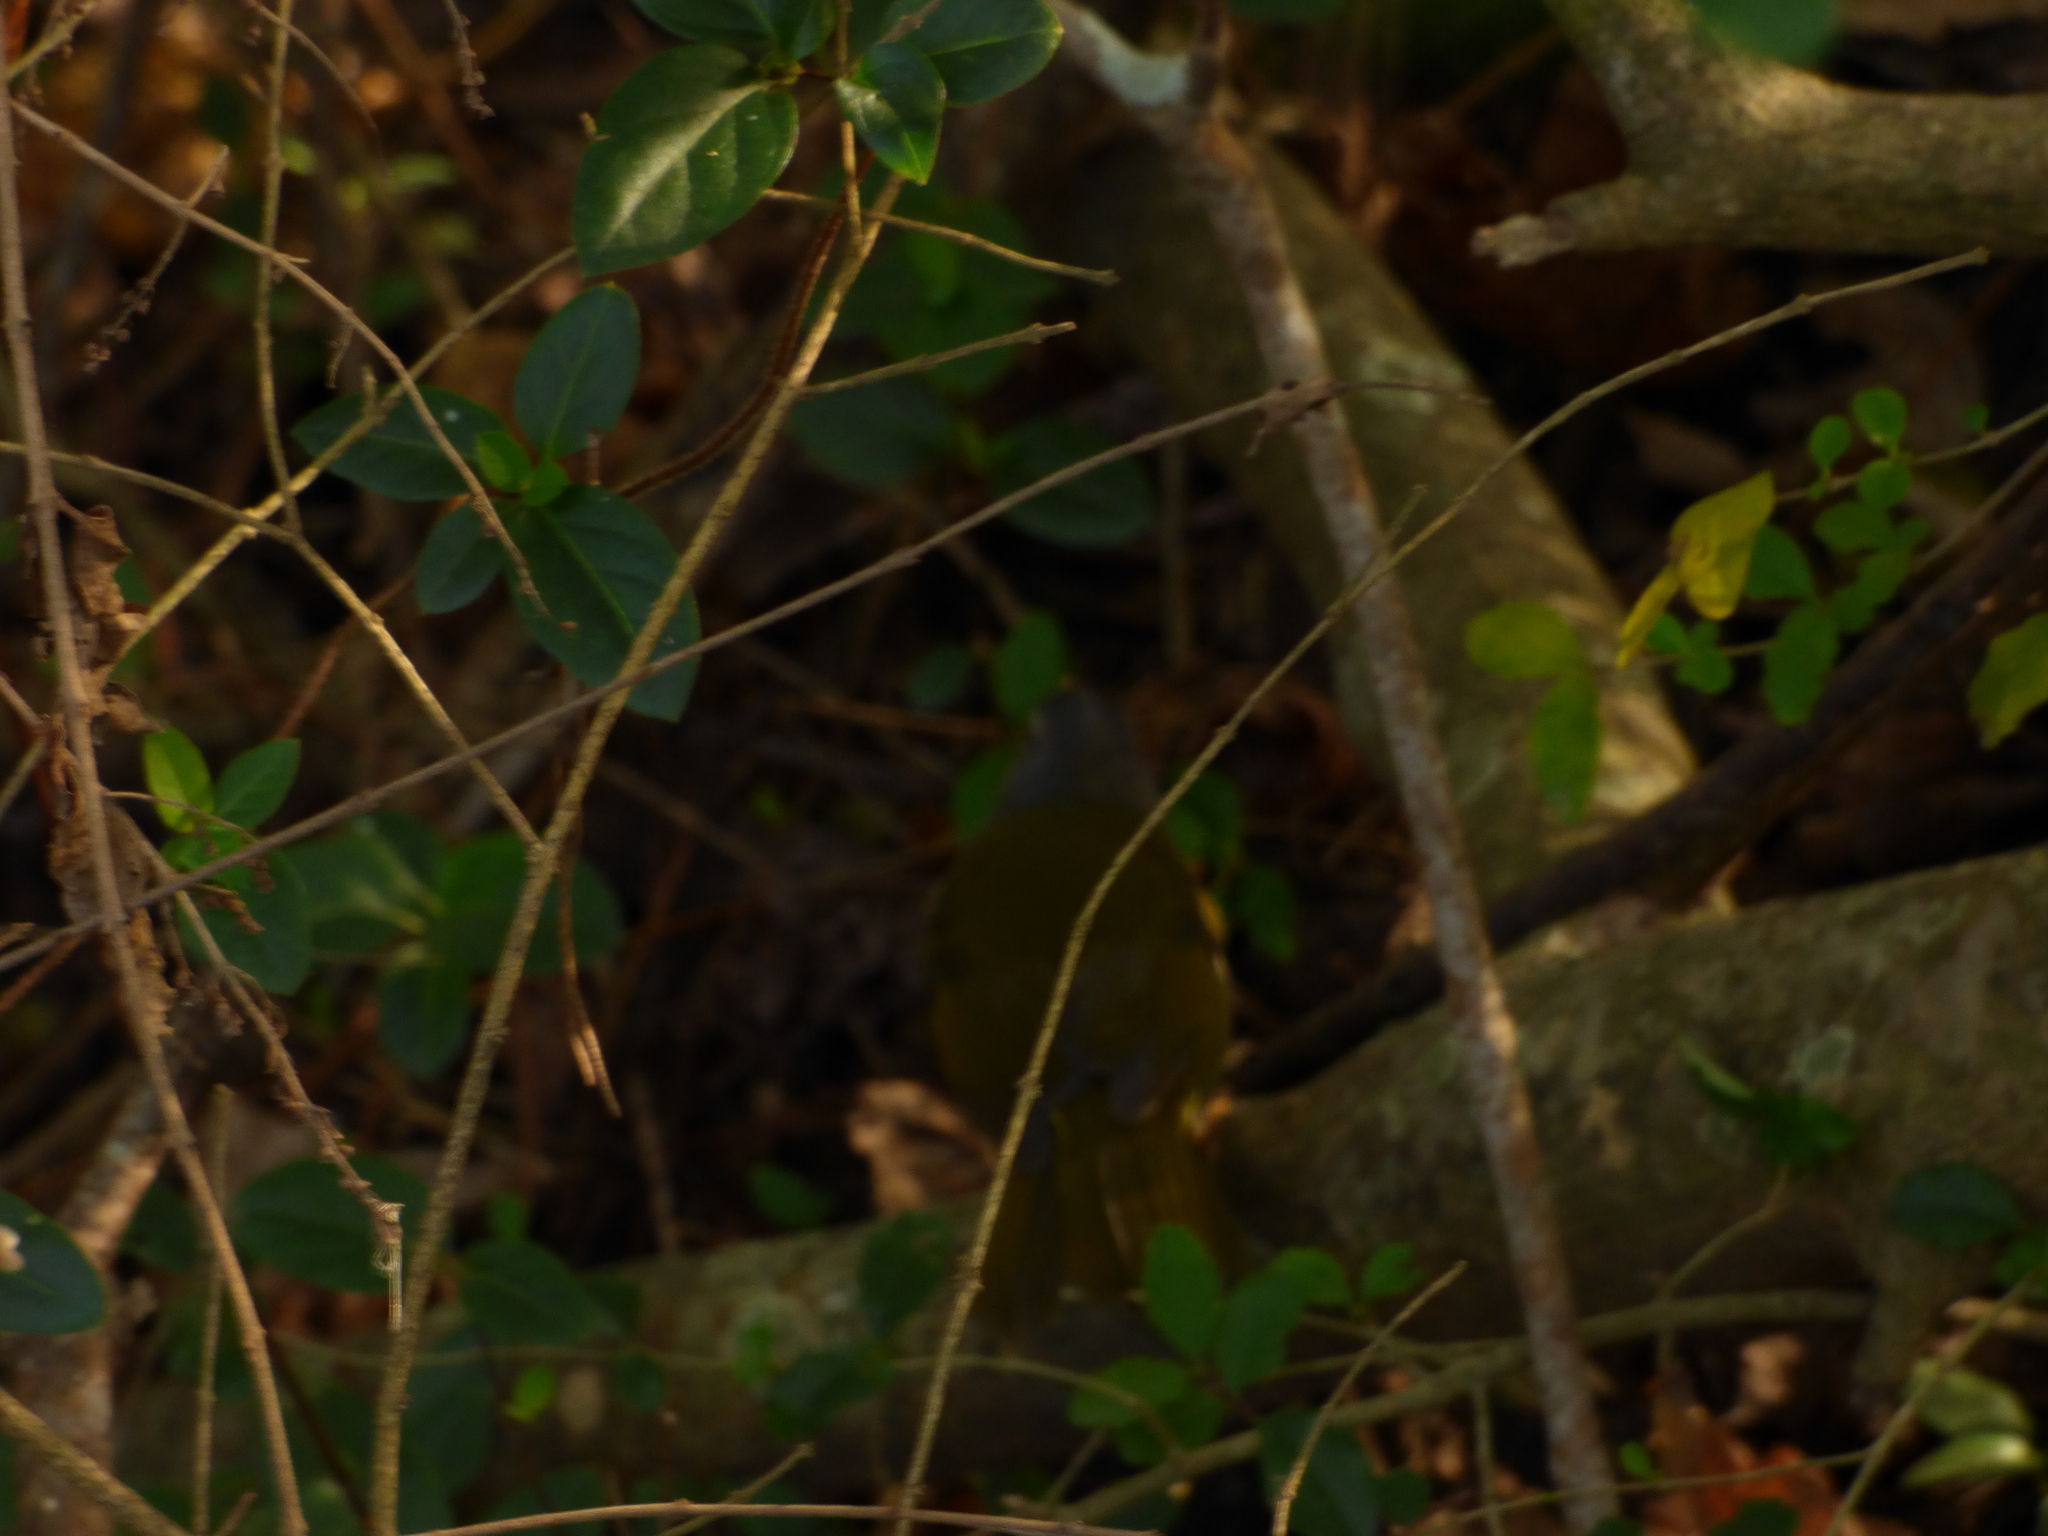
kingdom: Animalia
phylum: Chordata
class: Aves
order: Passeriformes
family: Parulidae
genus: Myiothlypis
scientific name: Myiothlypis leucoblephara
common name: White-rimmed warbler
